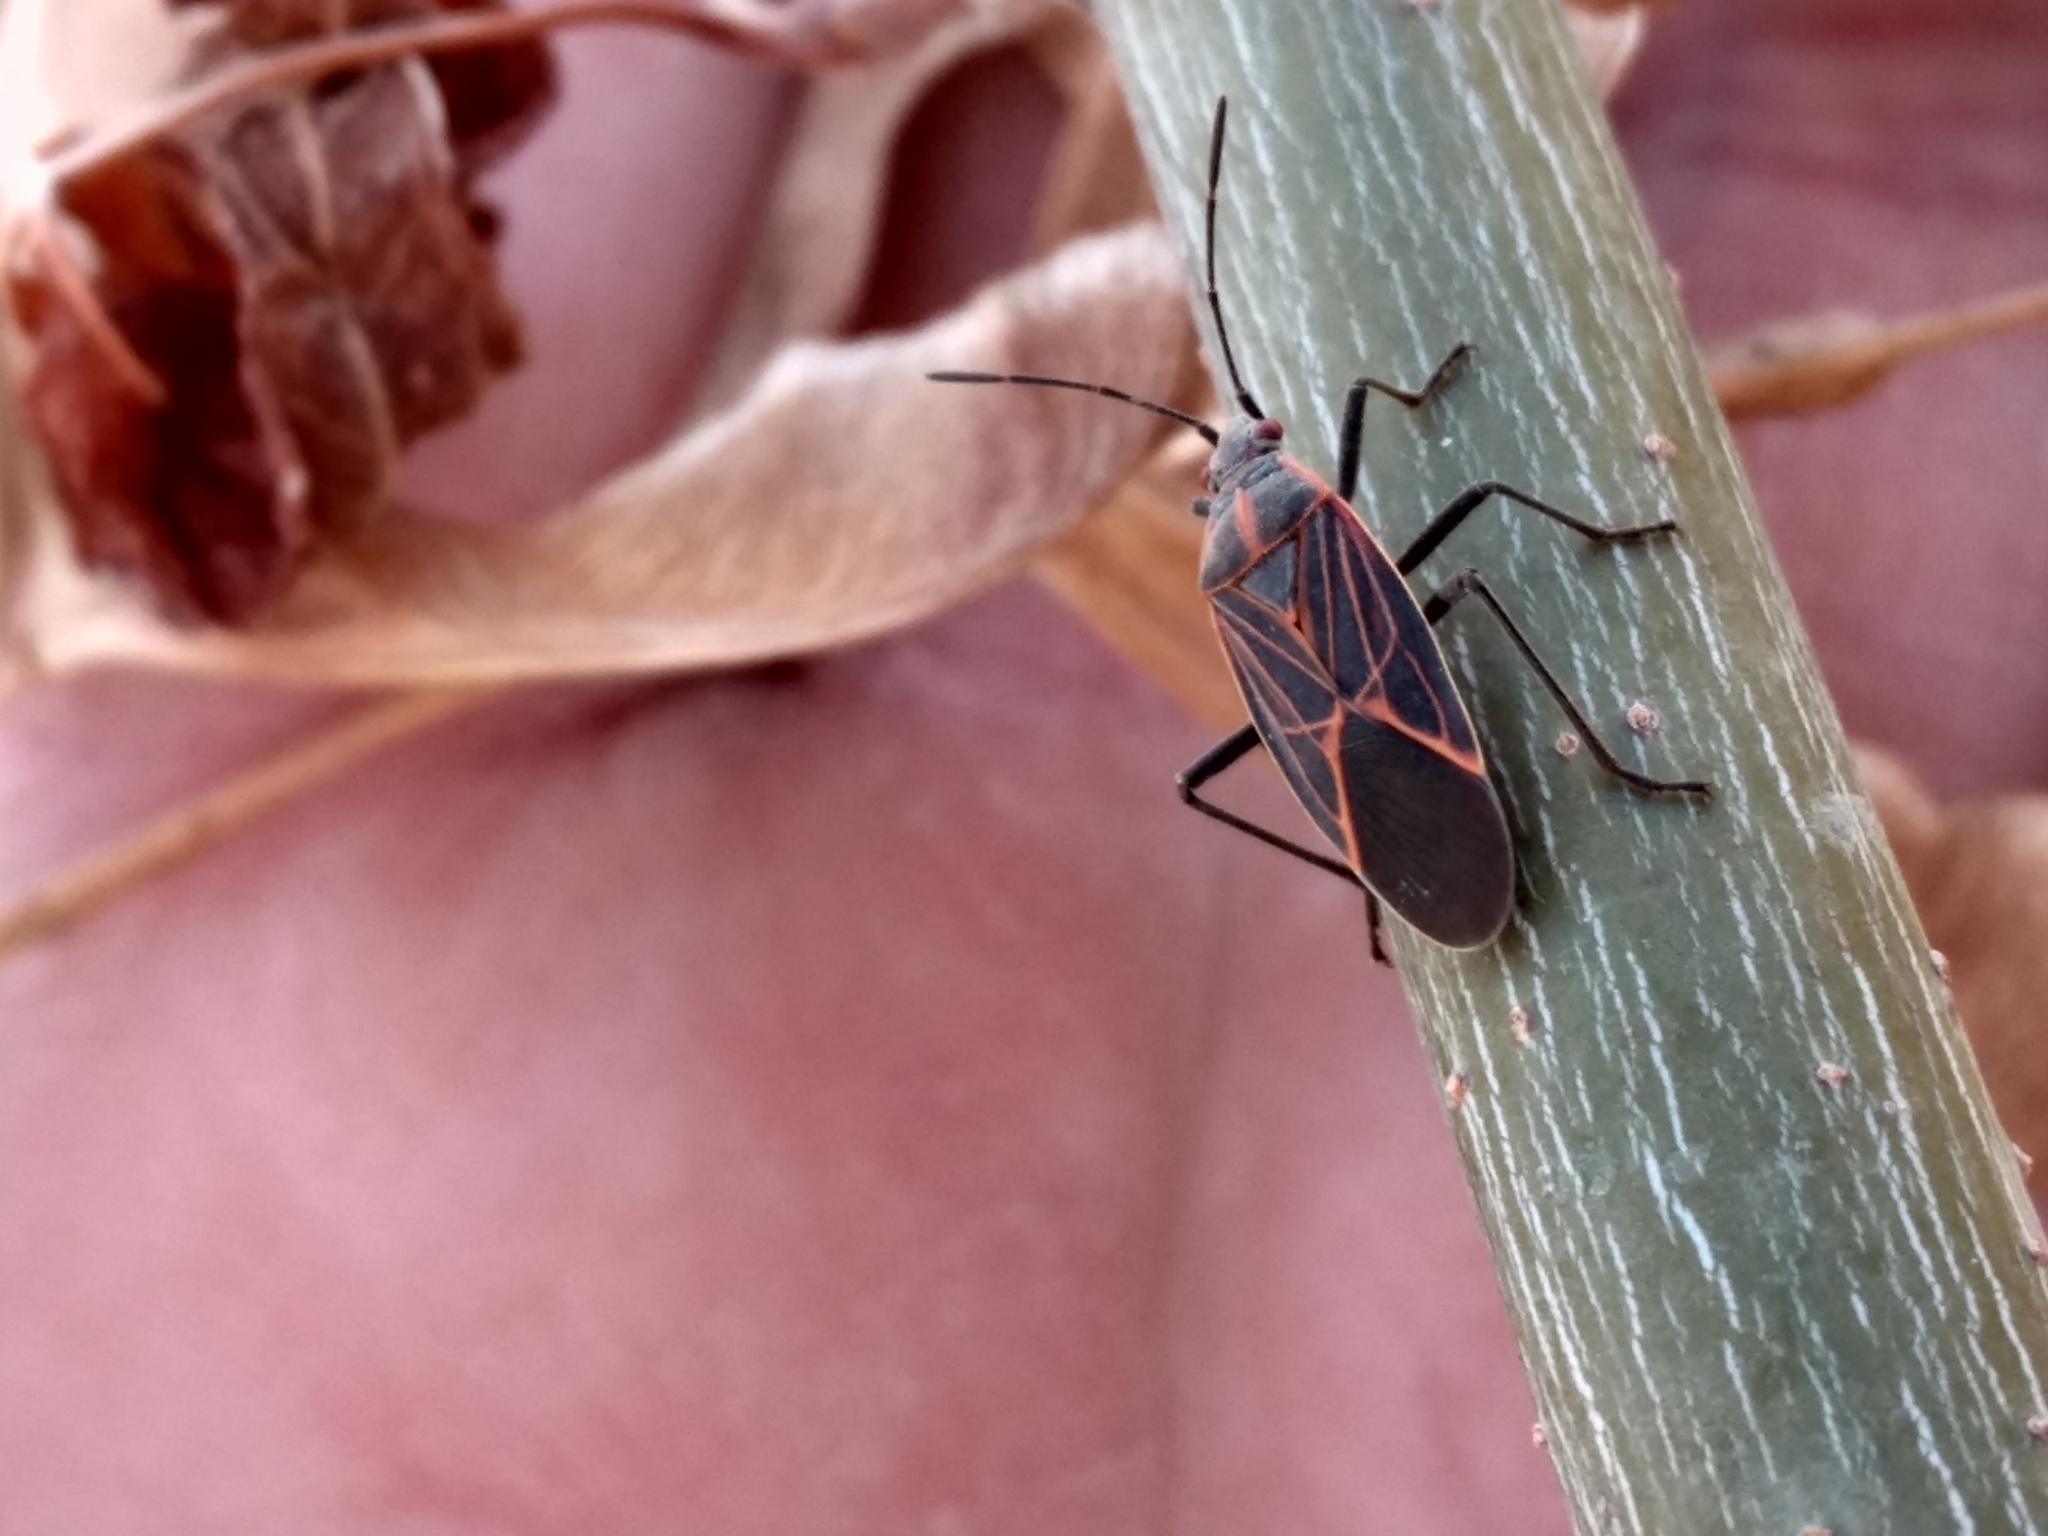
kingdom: Animalia
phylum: Arthropoda
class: Insecta
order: Hemiptera
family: Rhopalidae
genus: Boisea
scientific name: Boisea rubrolineata
